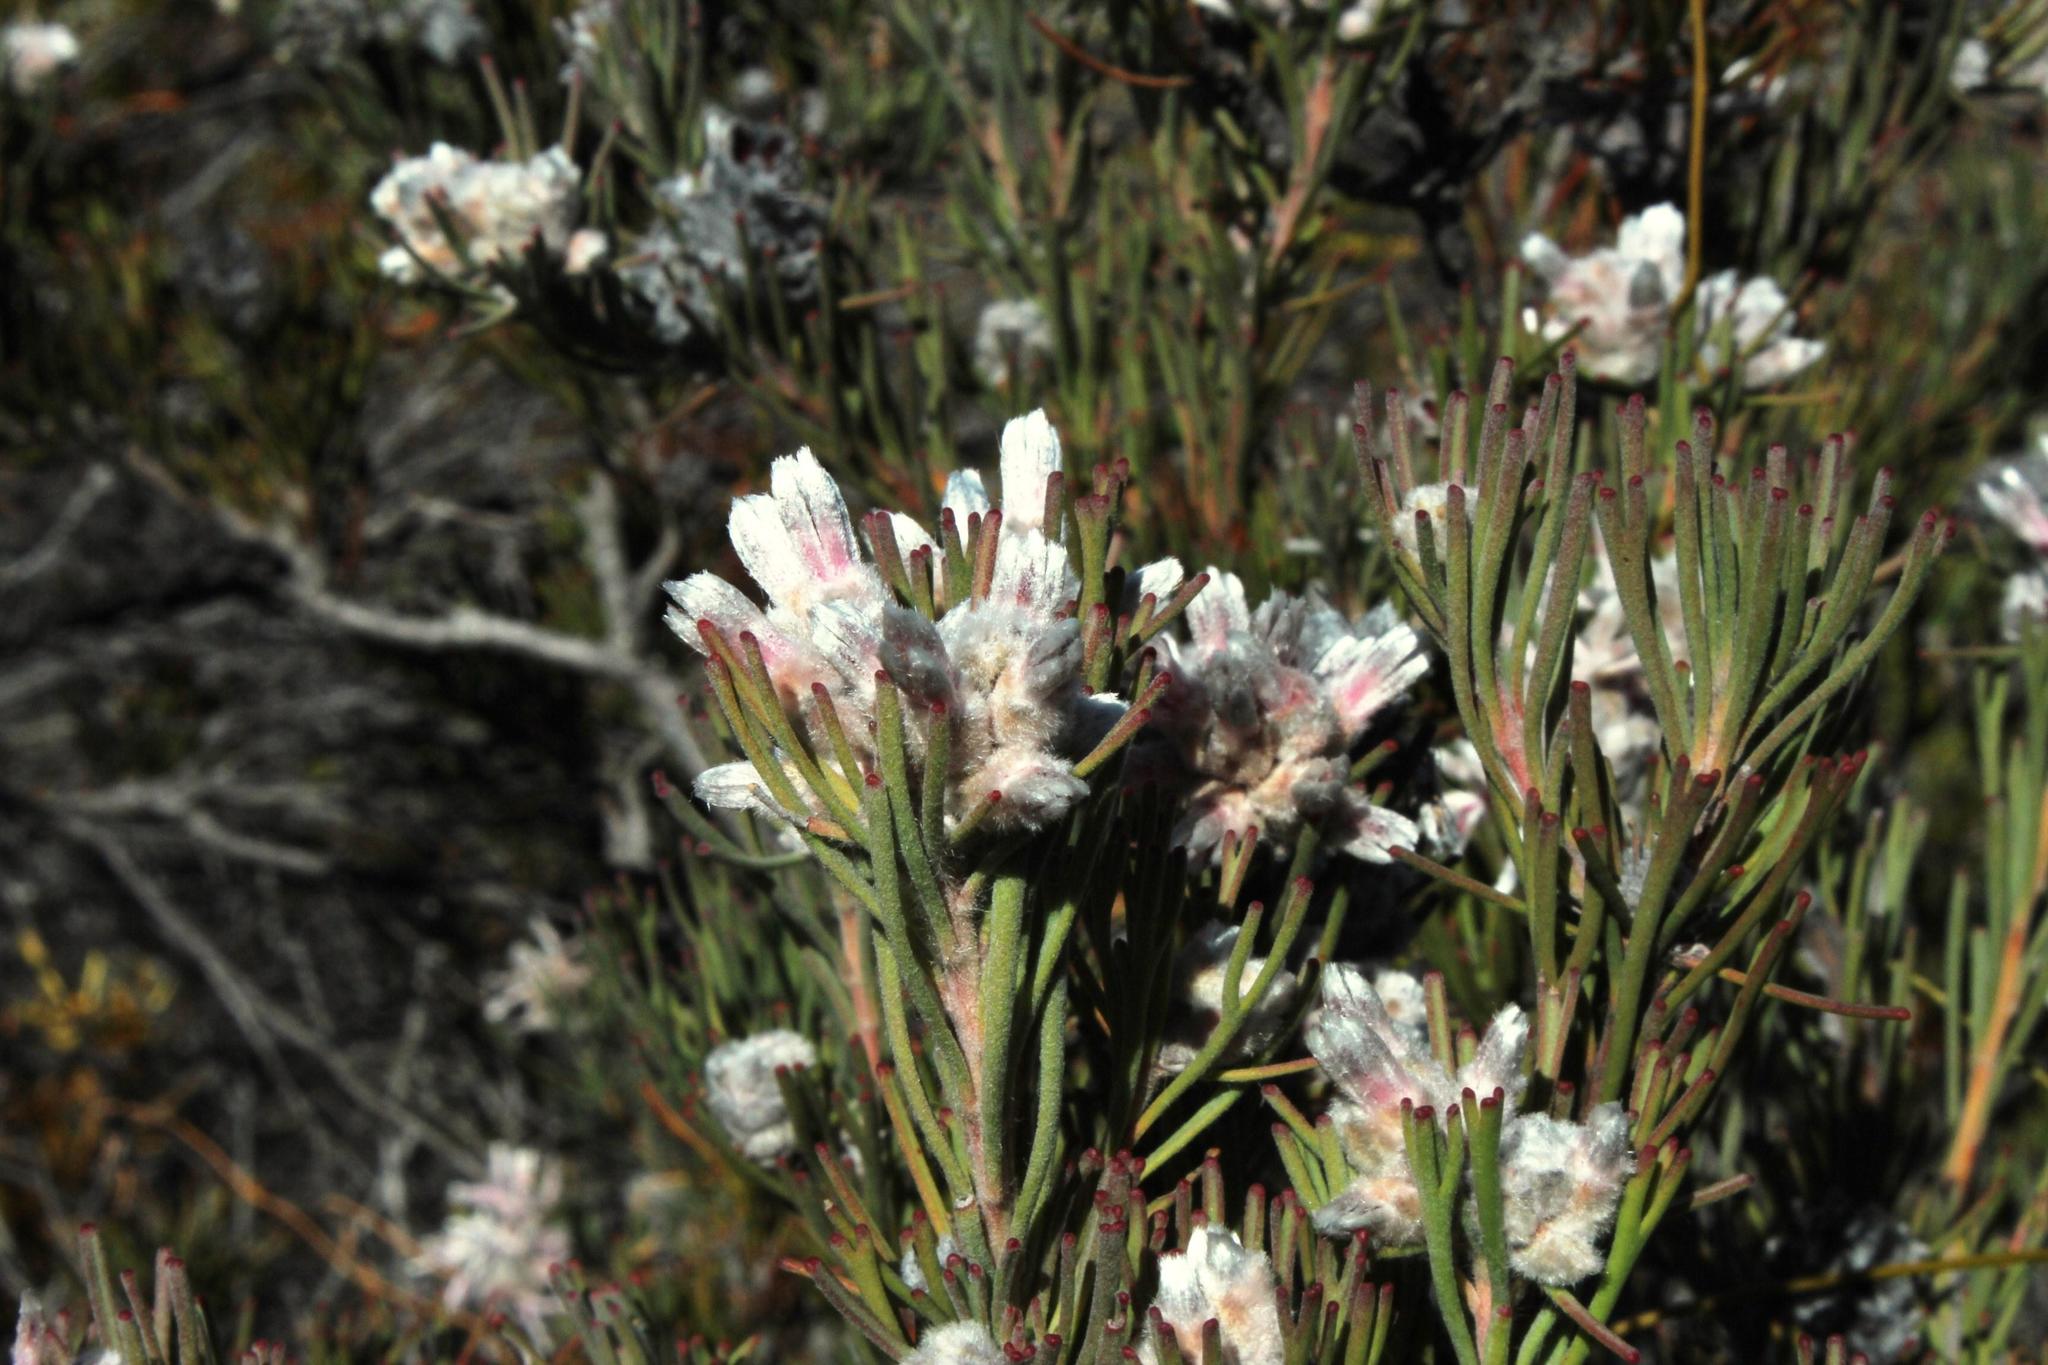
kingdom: Plantae
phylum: Tracheophyta
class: Magnoliopsida
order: Proteales
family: Proteaceae
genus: Paranomus
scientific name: Paranomus dregei
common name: Scented sceptre
